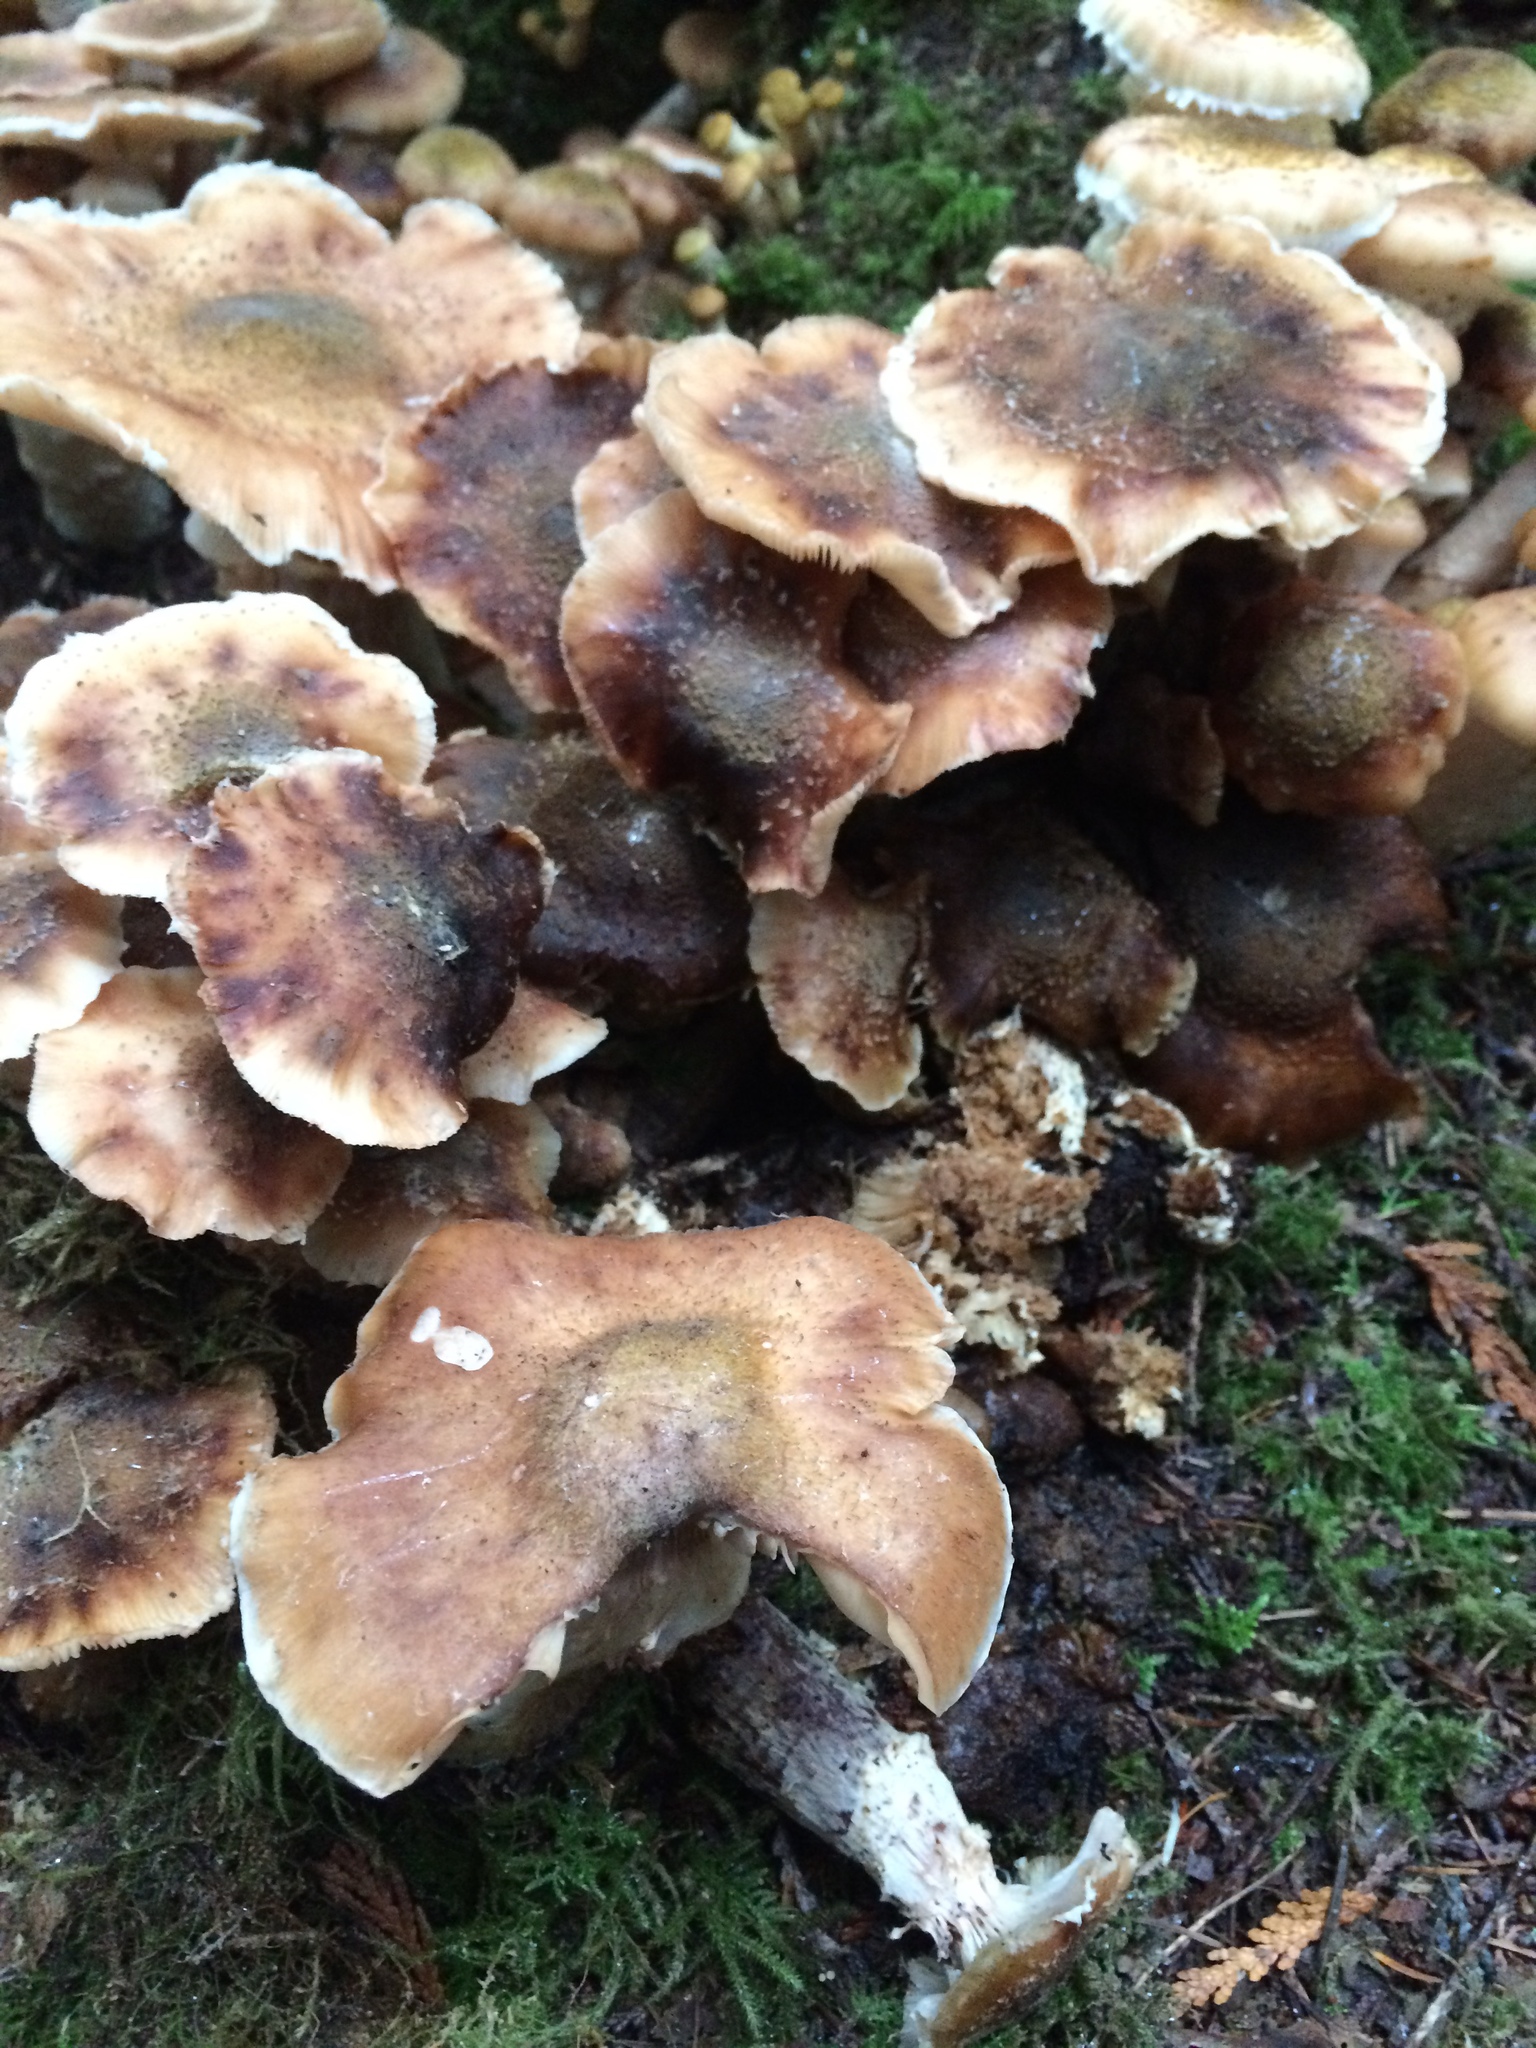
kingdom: Fungi
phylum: Basidiomycota
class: Agaricomycetes
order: Agaricales
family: Physalacriaceae
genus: Armillaria
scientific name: Armillaria mellea
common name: Honey fungus
